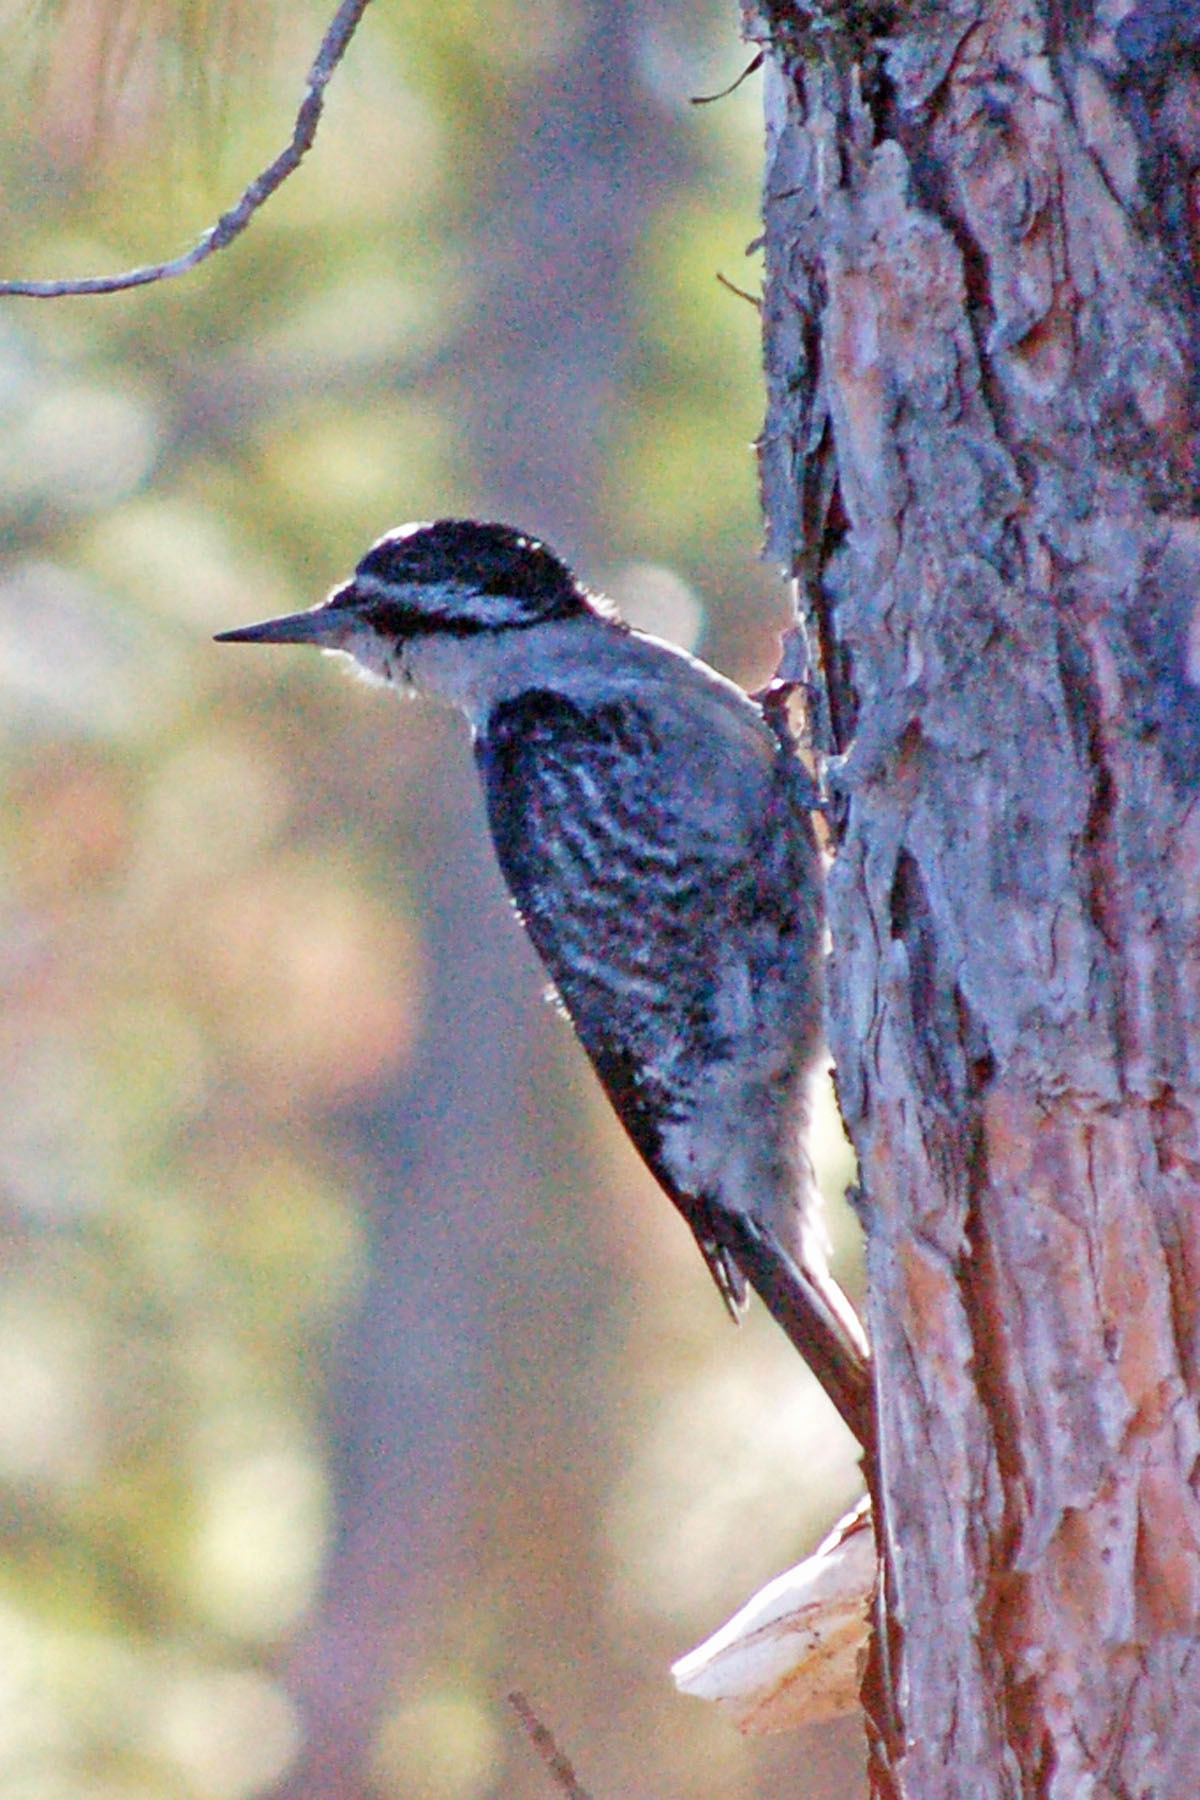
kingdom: Animalia
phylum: Chordata
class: Aves
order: Piciformes
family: Picidae
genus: Picoides
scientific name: Picoides arcticus
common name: Black-backed woodpecker
